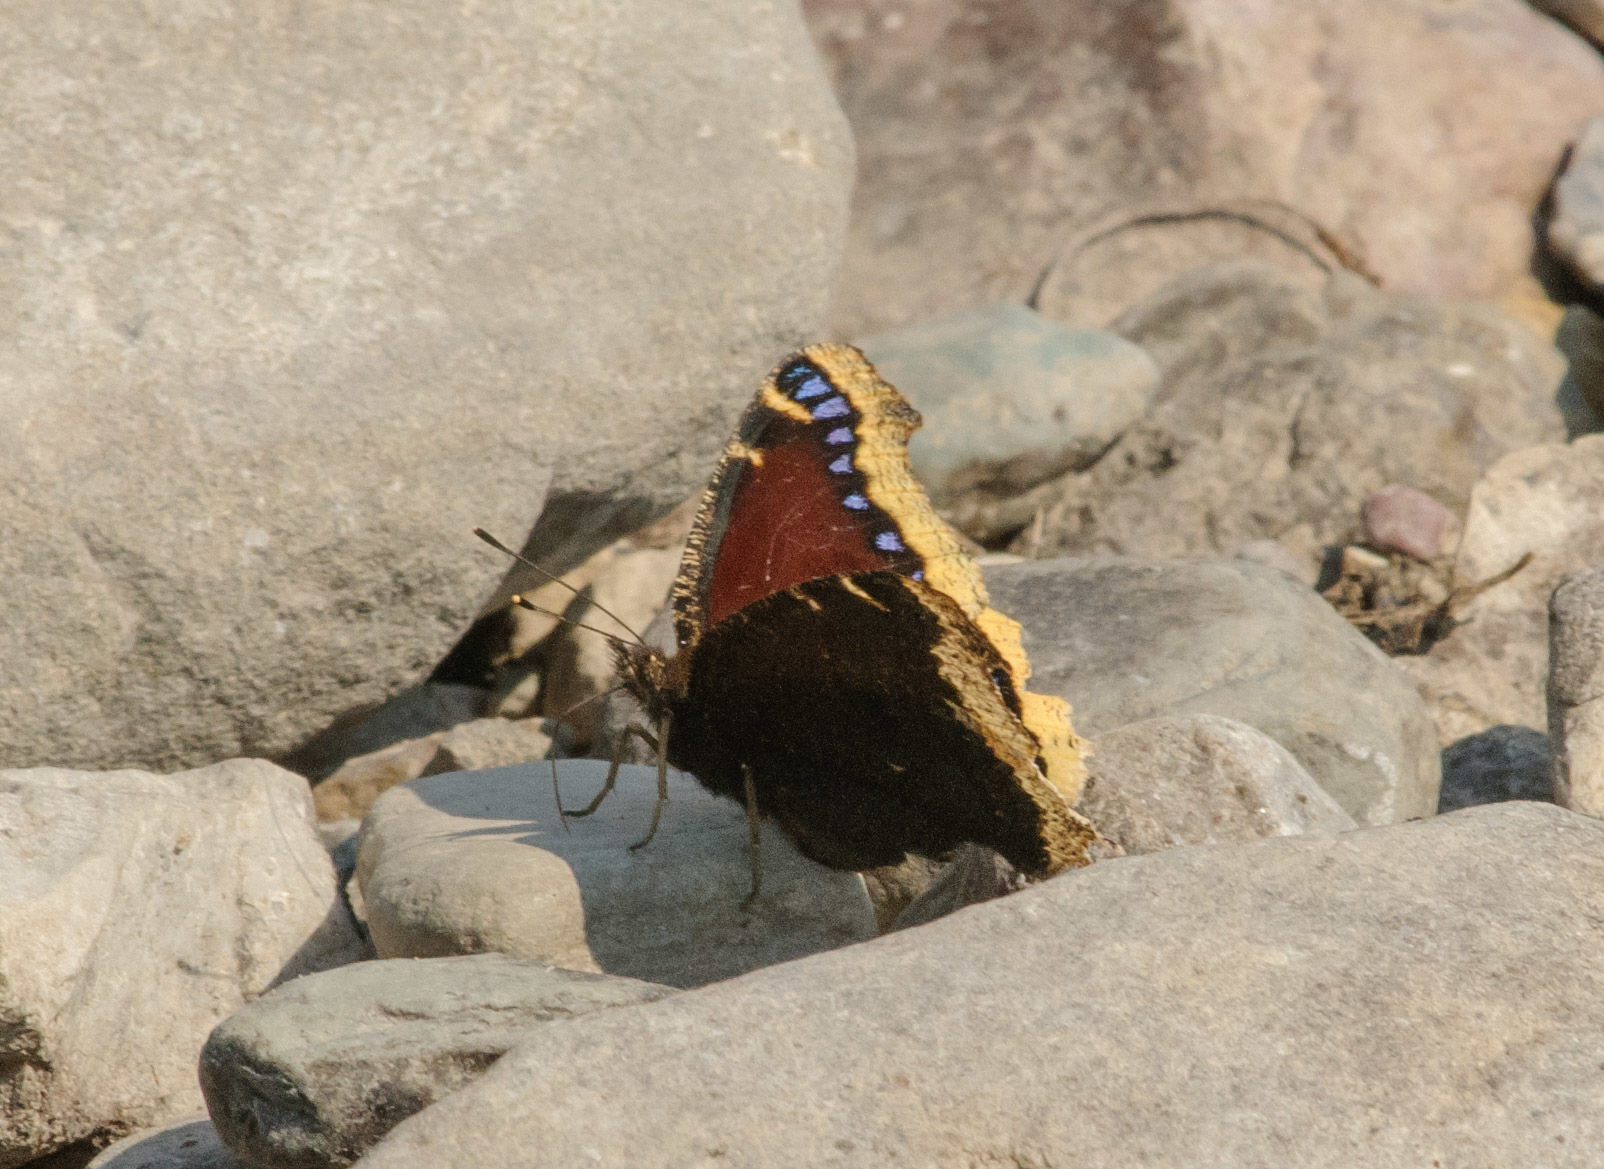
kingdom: Animalia
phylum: Arthropoda
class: Insecta
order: Lepidoptera
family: Nymphalidae
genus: Nymphalis
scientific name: Nymphalis antiopa
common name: Camberwell beauty
